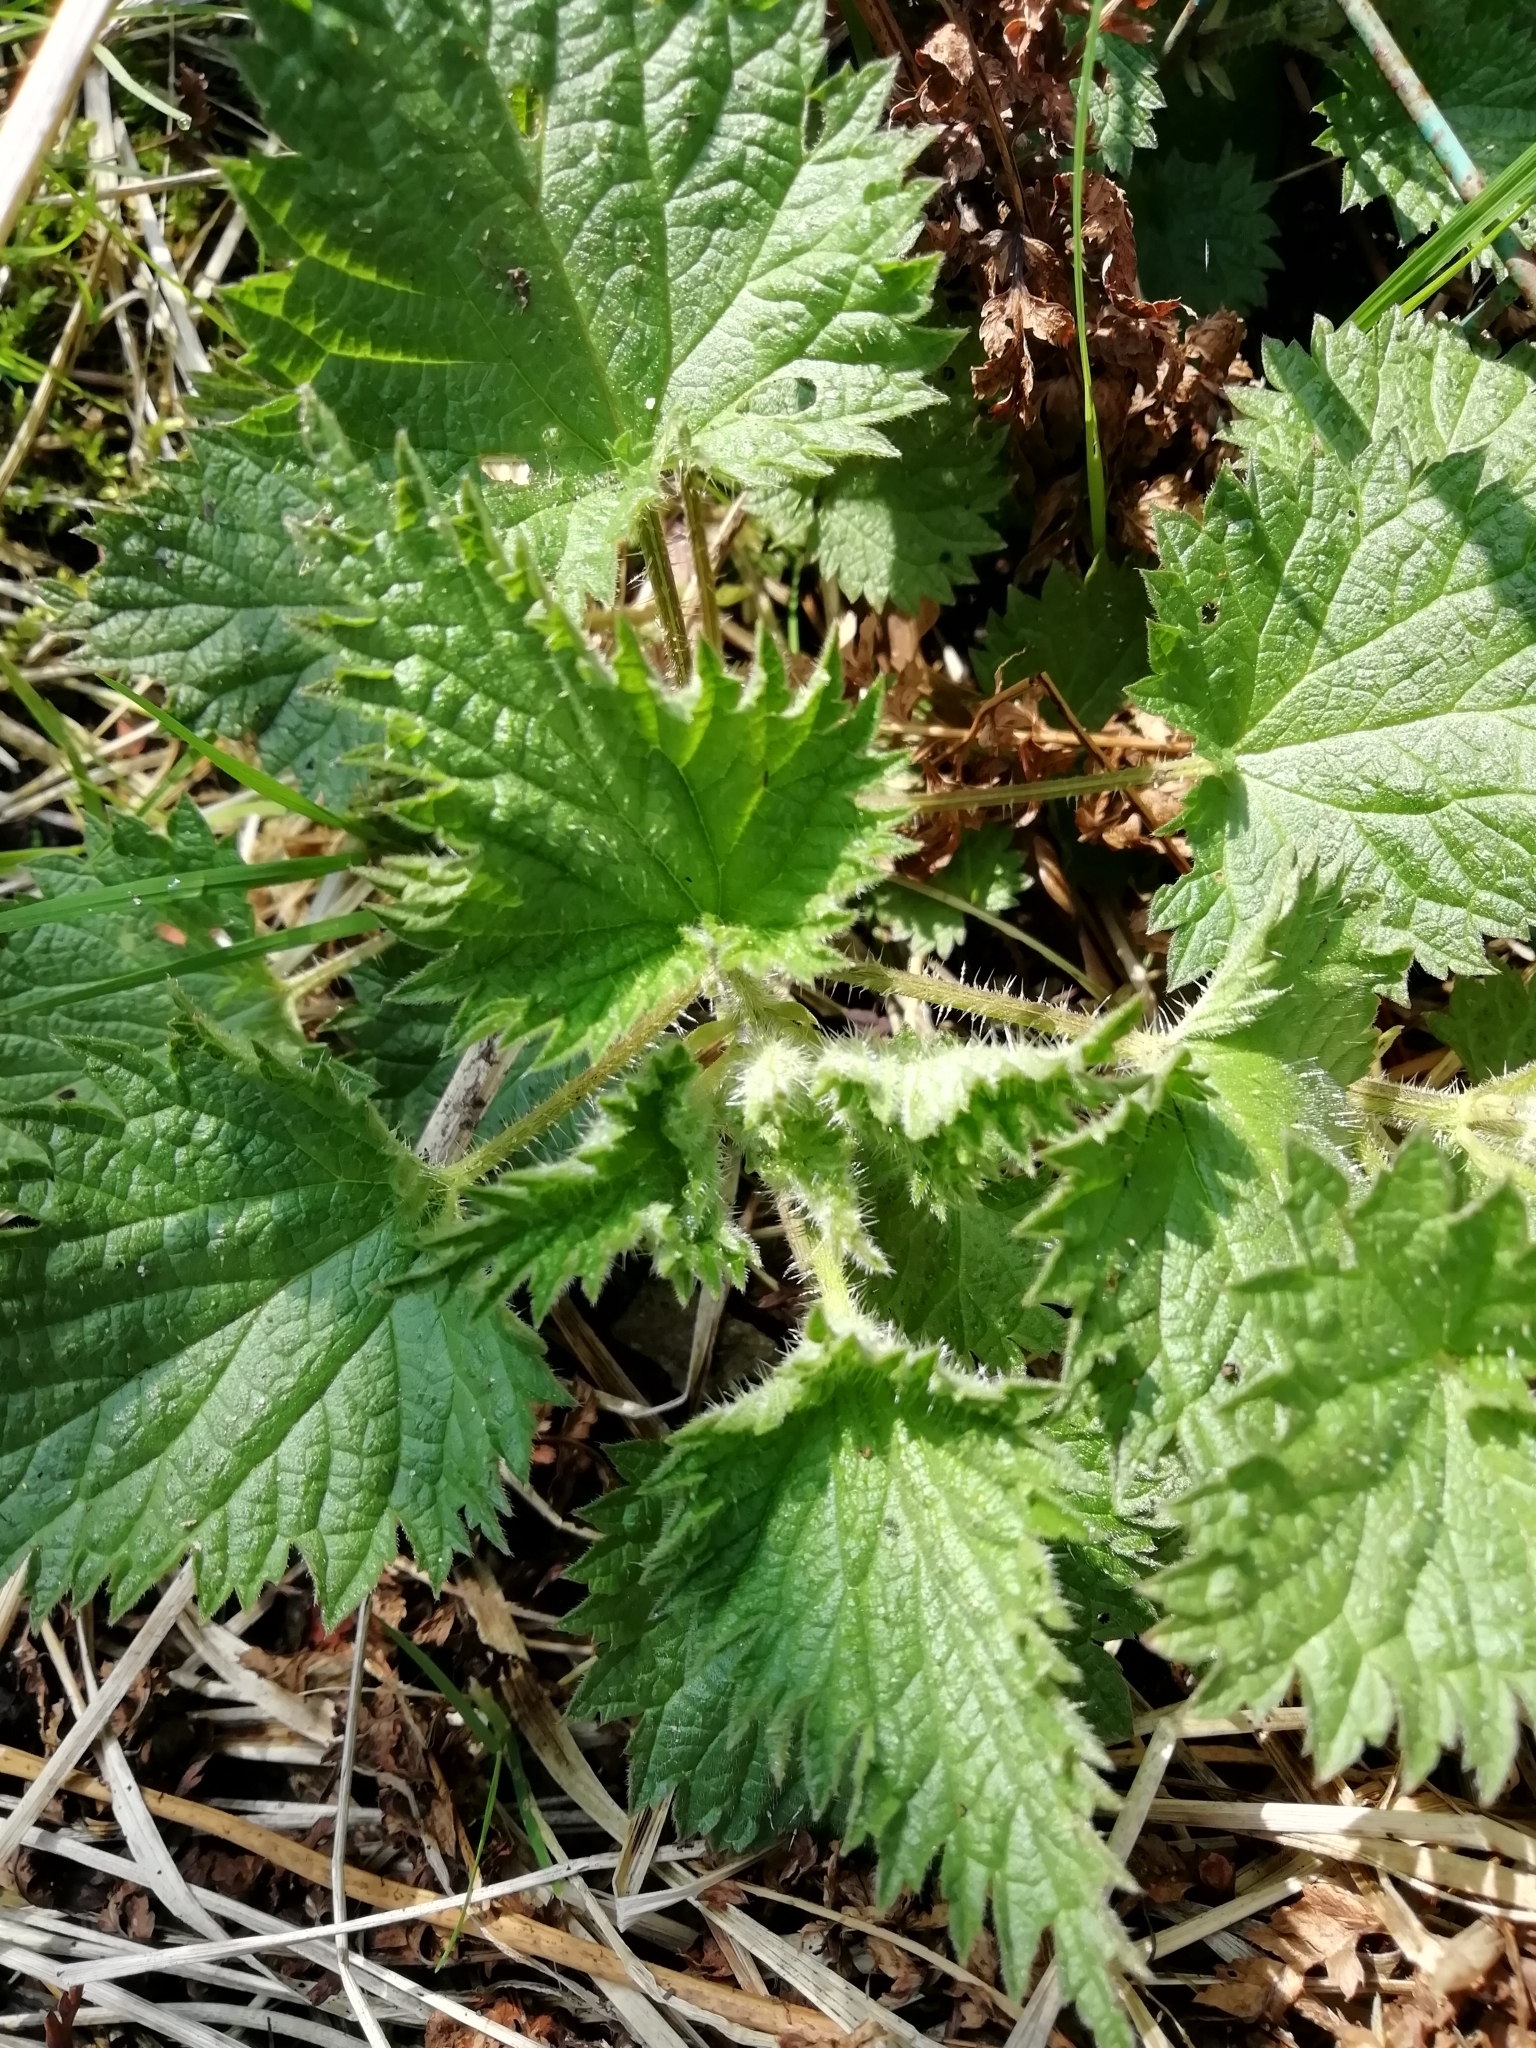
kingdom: Plantae
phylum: Tracheophyta
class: Magnoliopsida
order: Rosales
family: Urticaceae
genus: Urtica
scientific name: Urtica dioica
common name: Common nettle
